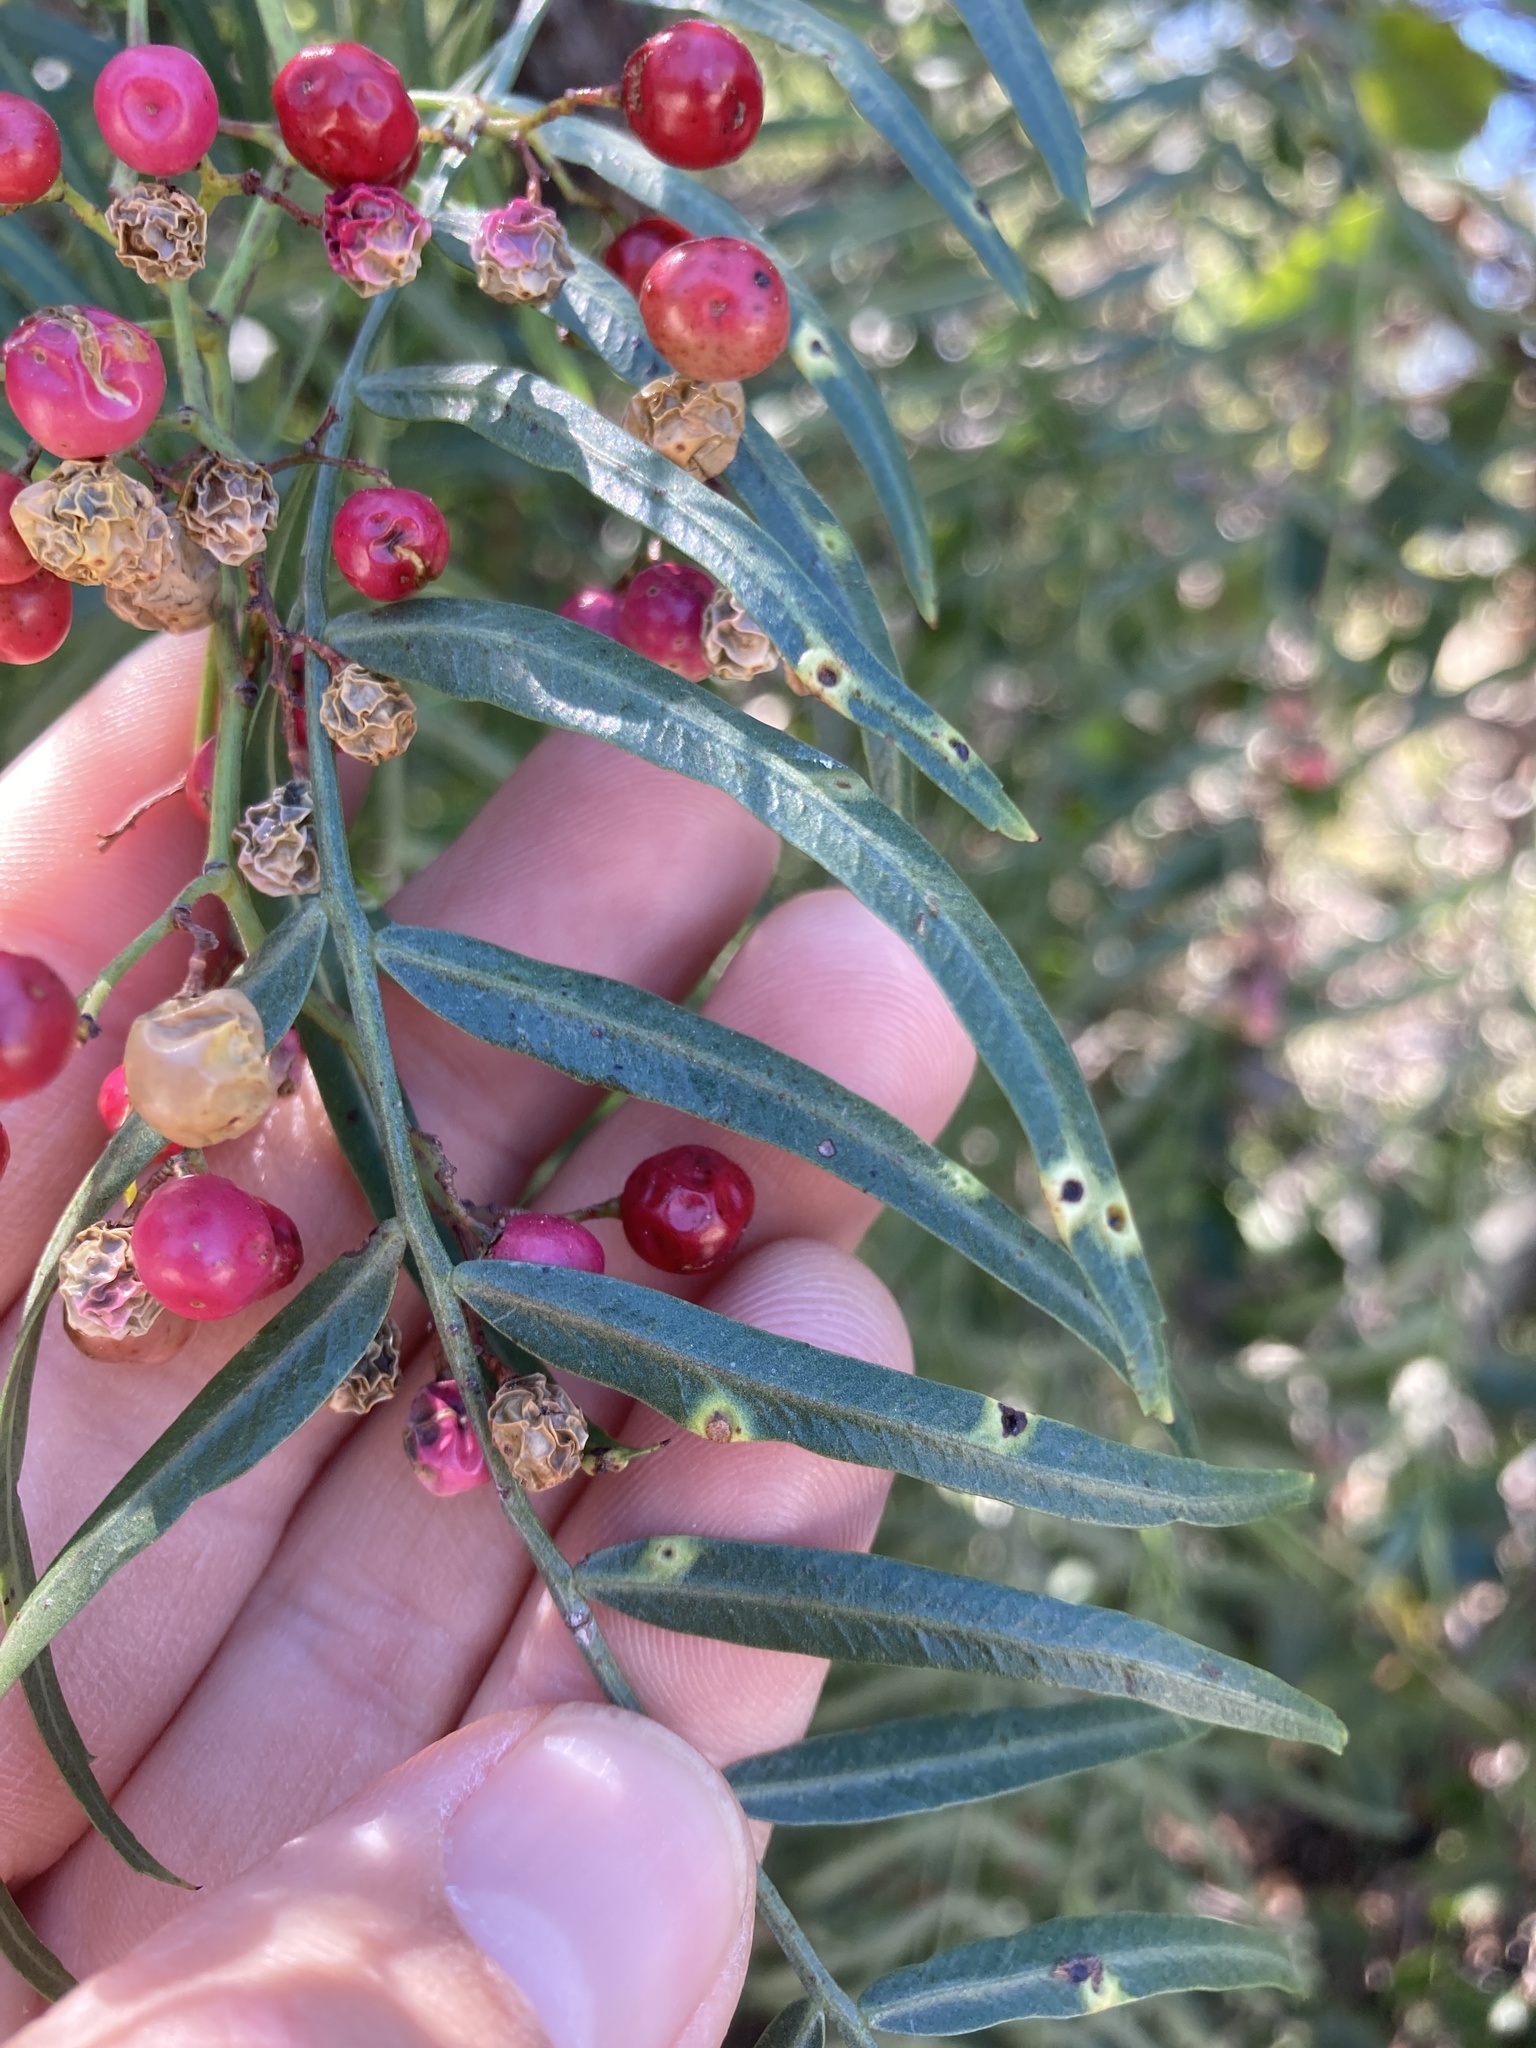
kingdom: Animalia
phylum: Arthropoda
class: Insecta
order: Hemiptera
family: Calophyidae
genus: Calophya
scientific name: Calophya schini
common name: Pepper tree psyllid
